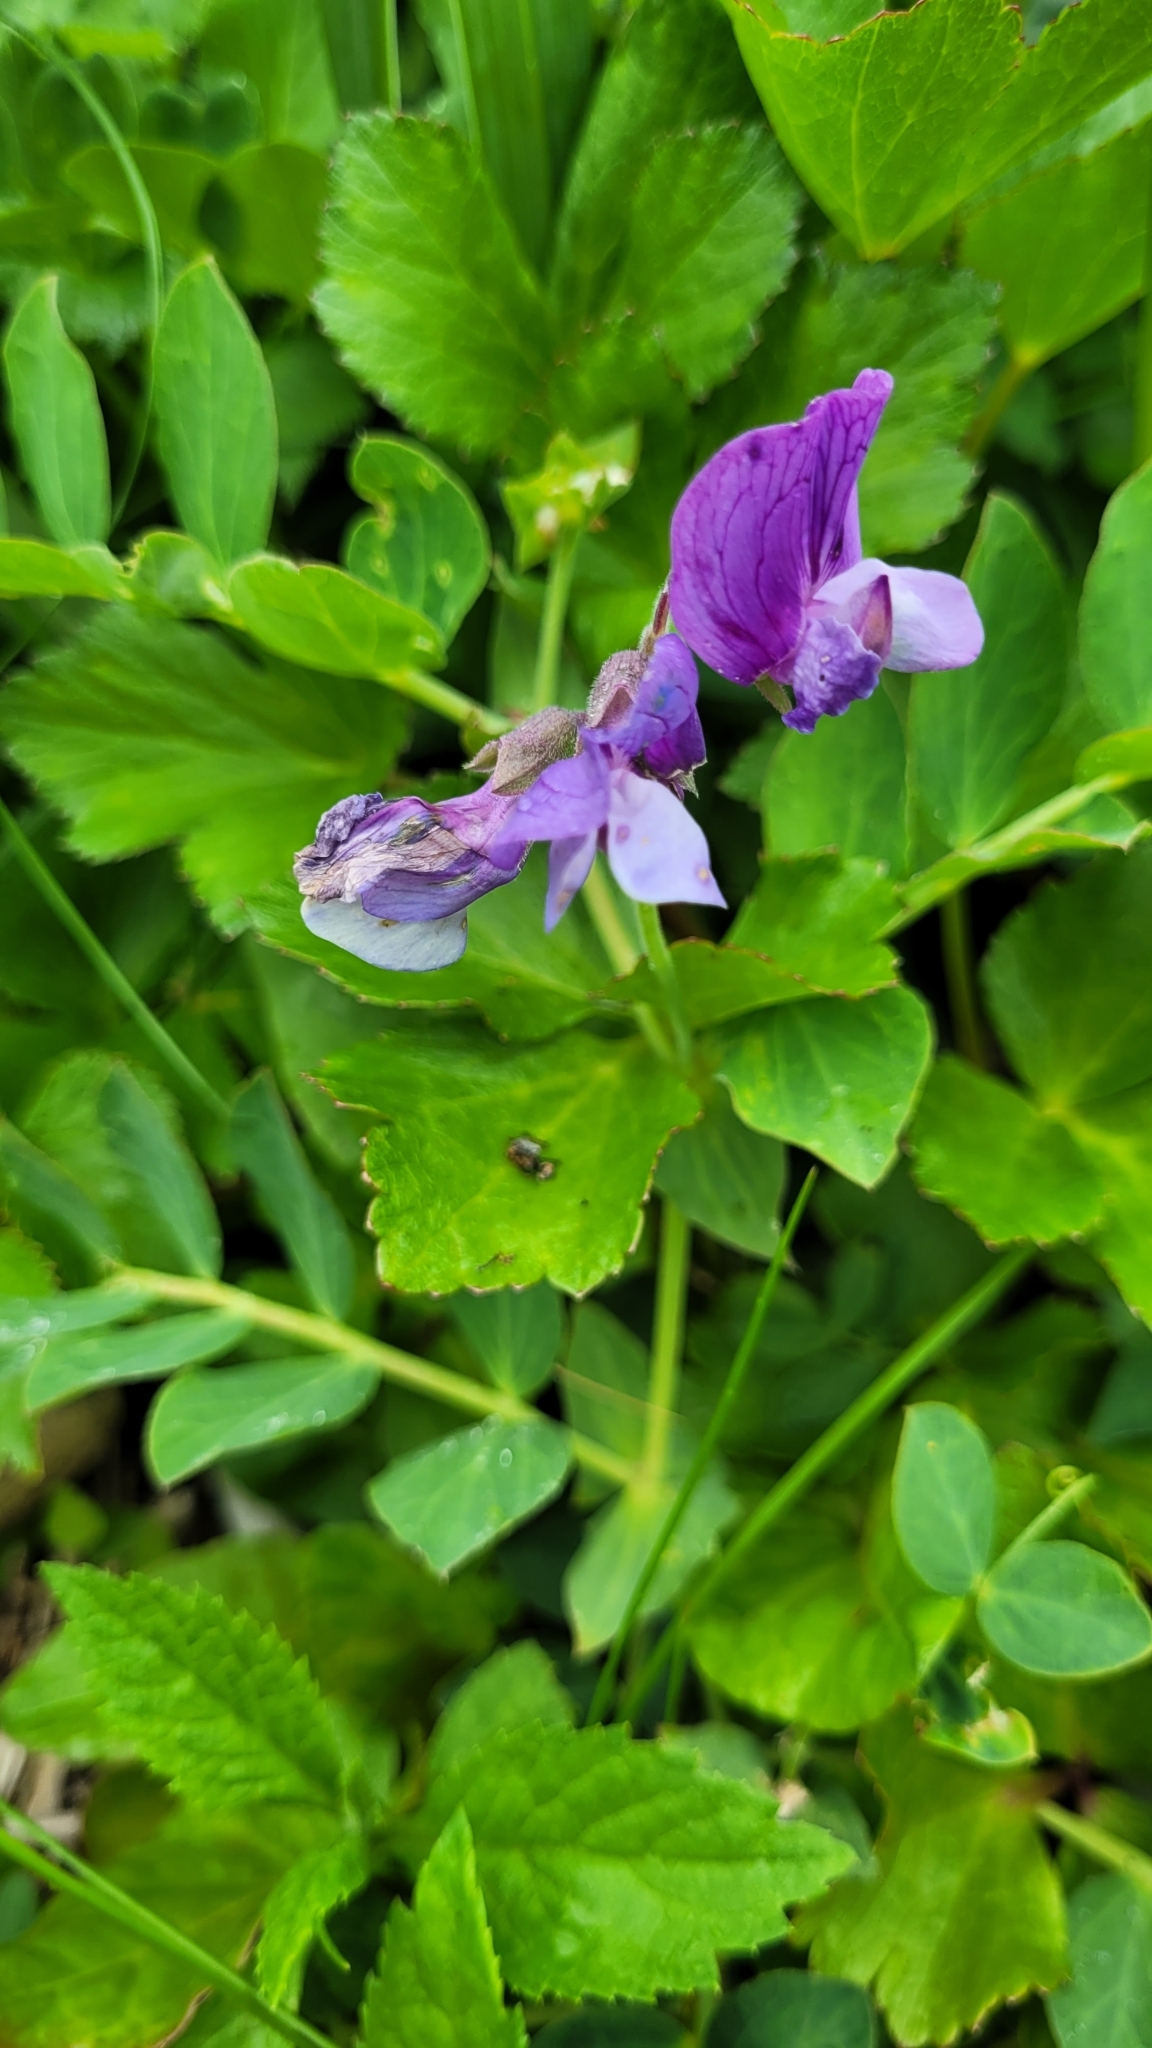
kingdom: Plantae
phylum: Tracheophyta
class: Magnoliopsida
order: Fabales
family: Fabaceae
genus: Lathyrus
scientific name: Lathyrus japonicus
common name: Sea pea
